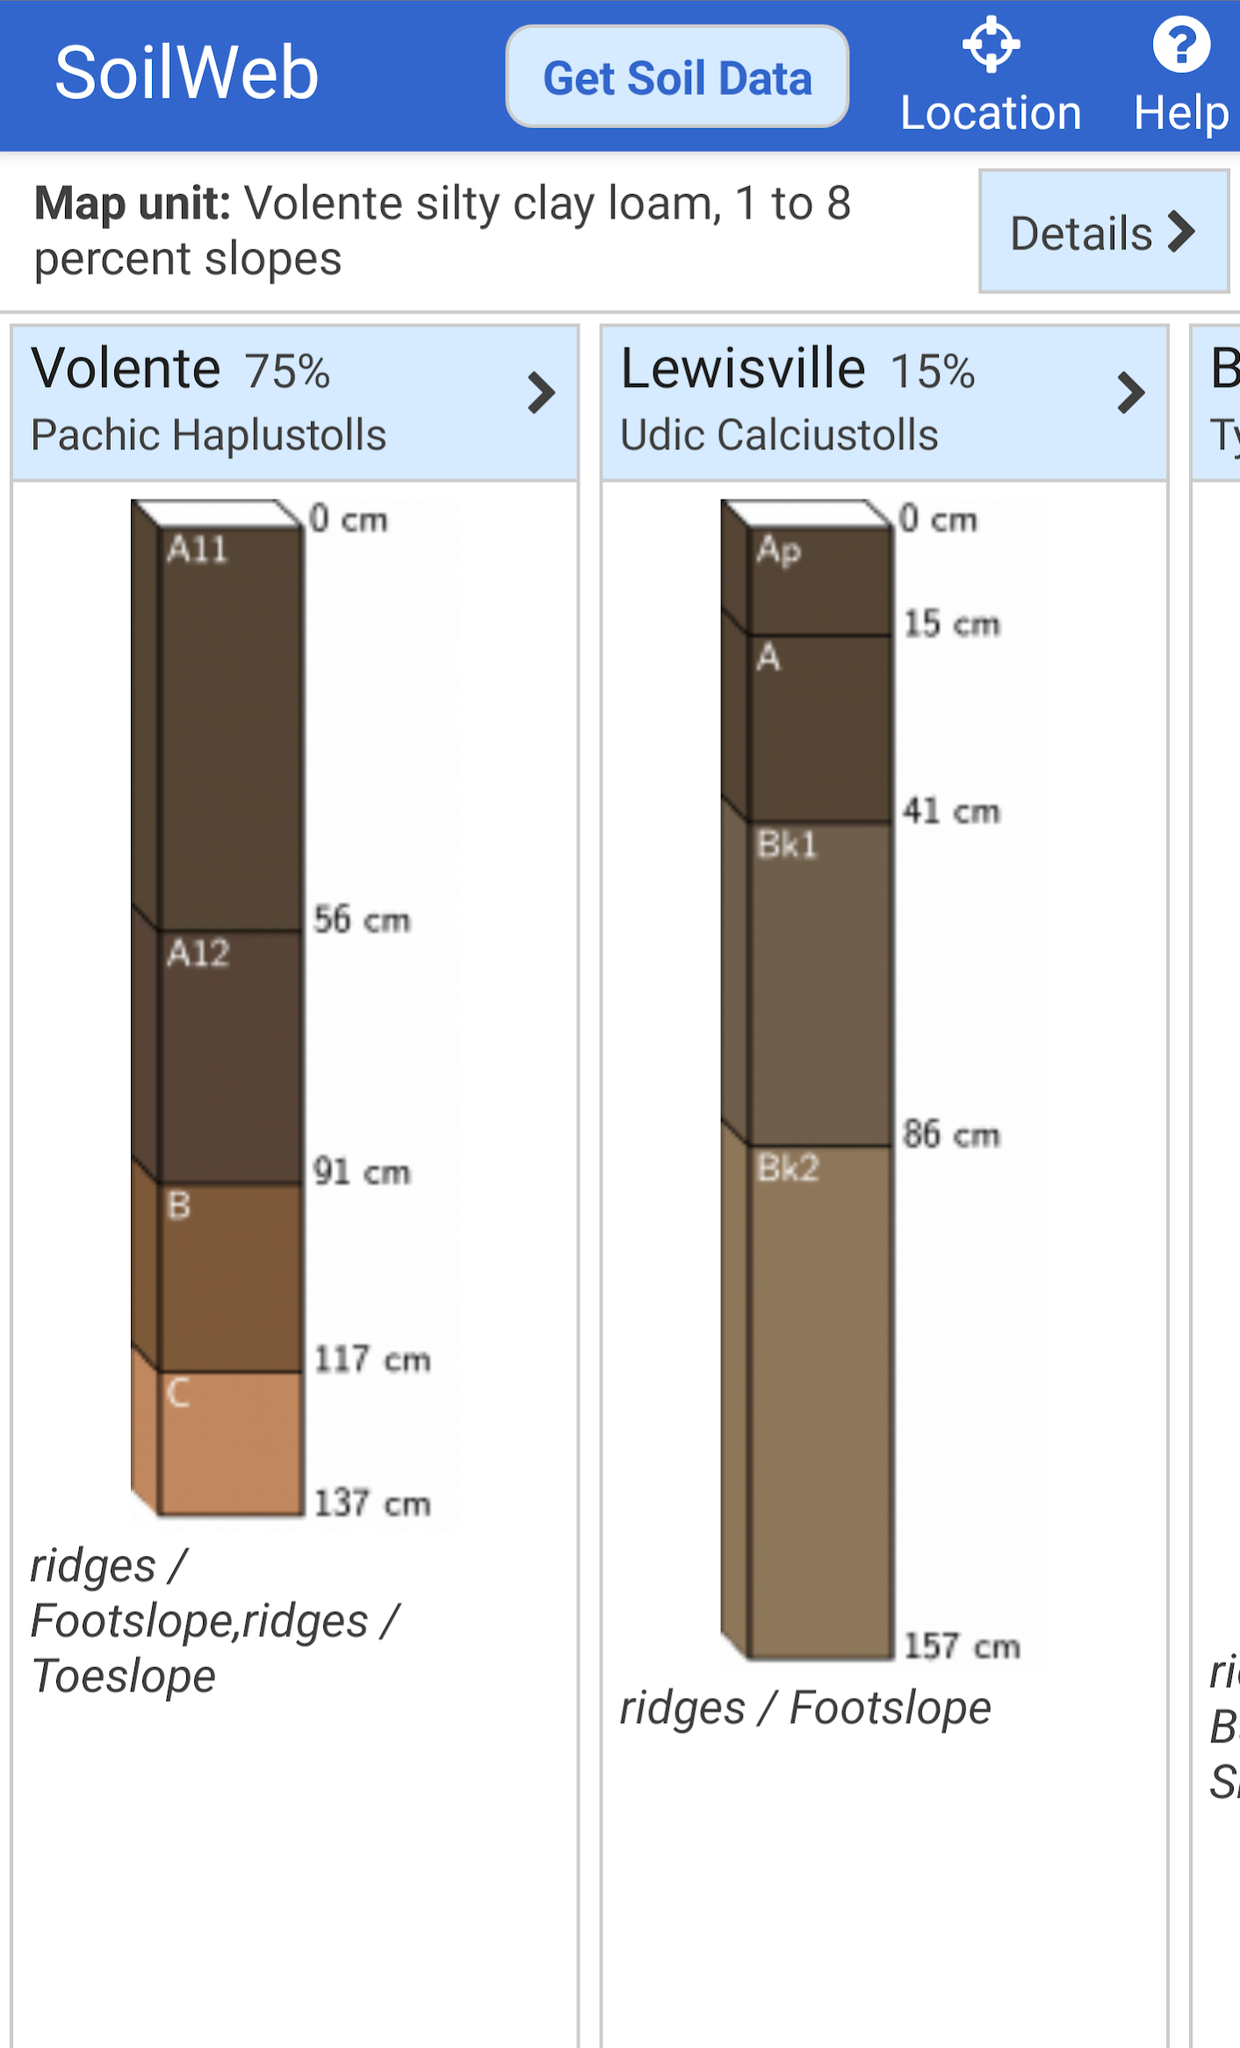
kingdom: Plantae
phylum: Tracheophyta
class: Liliopsida
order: Asparagales
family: Orchidaceae
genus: Bletia
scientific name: Bletia nitida
